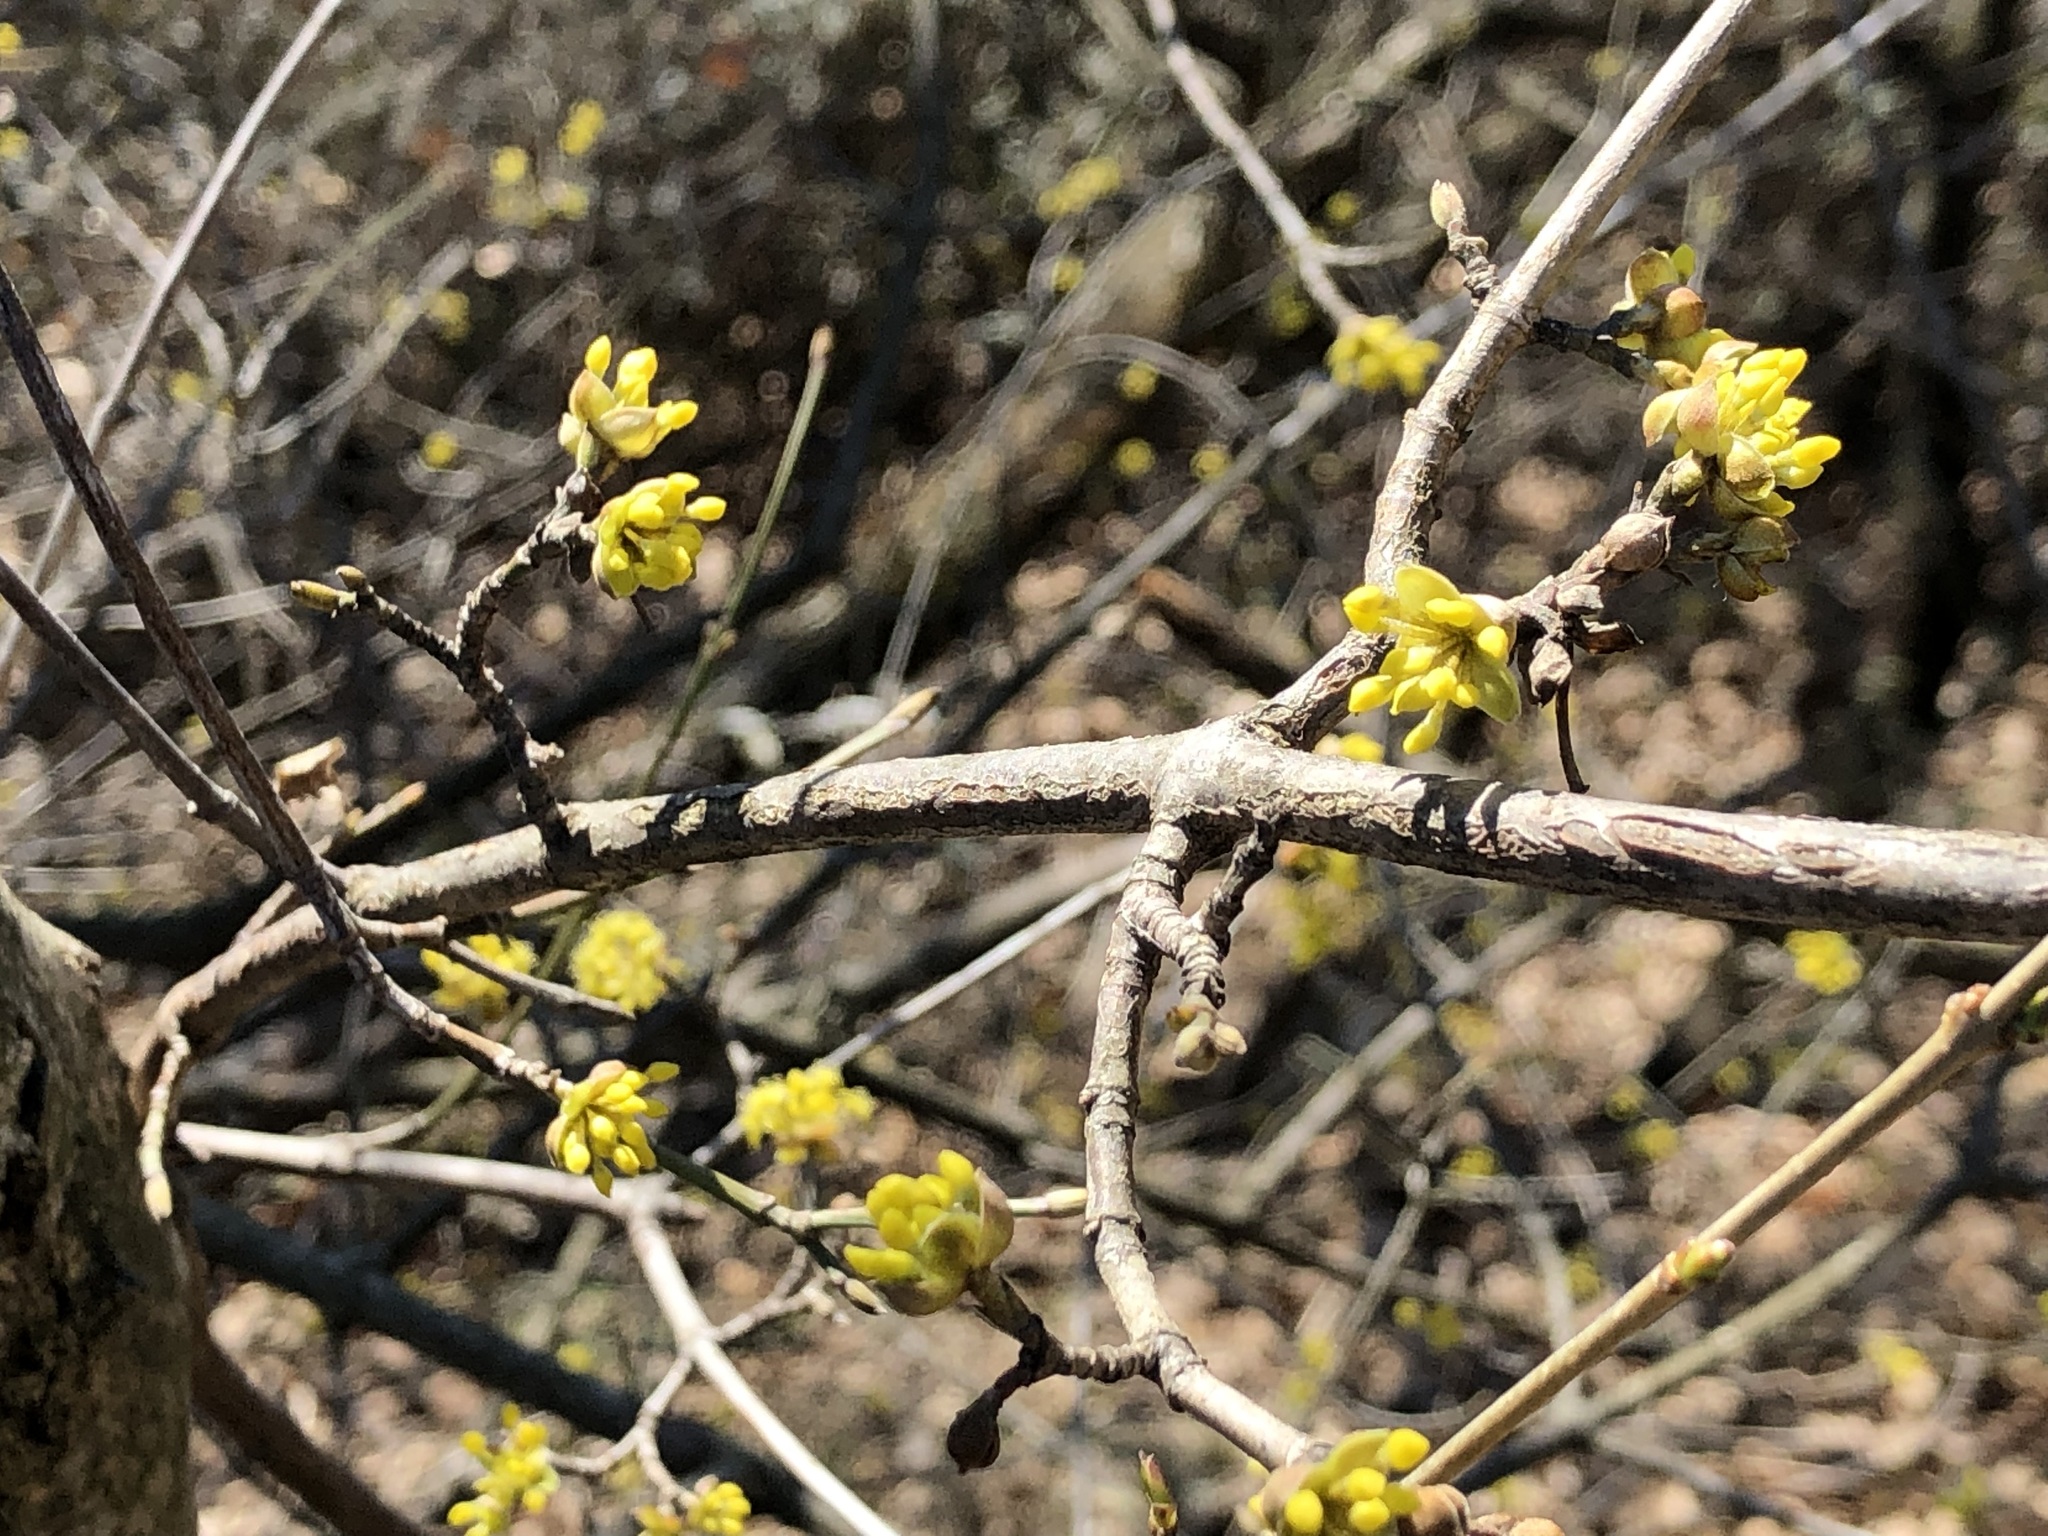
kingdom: Plantae
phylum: Tracheophyta
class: Magnoliopsida
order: Cornales
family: Cornaceae
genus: Cornus
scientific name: Cornus mas
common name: Cornelian-cherry
